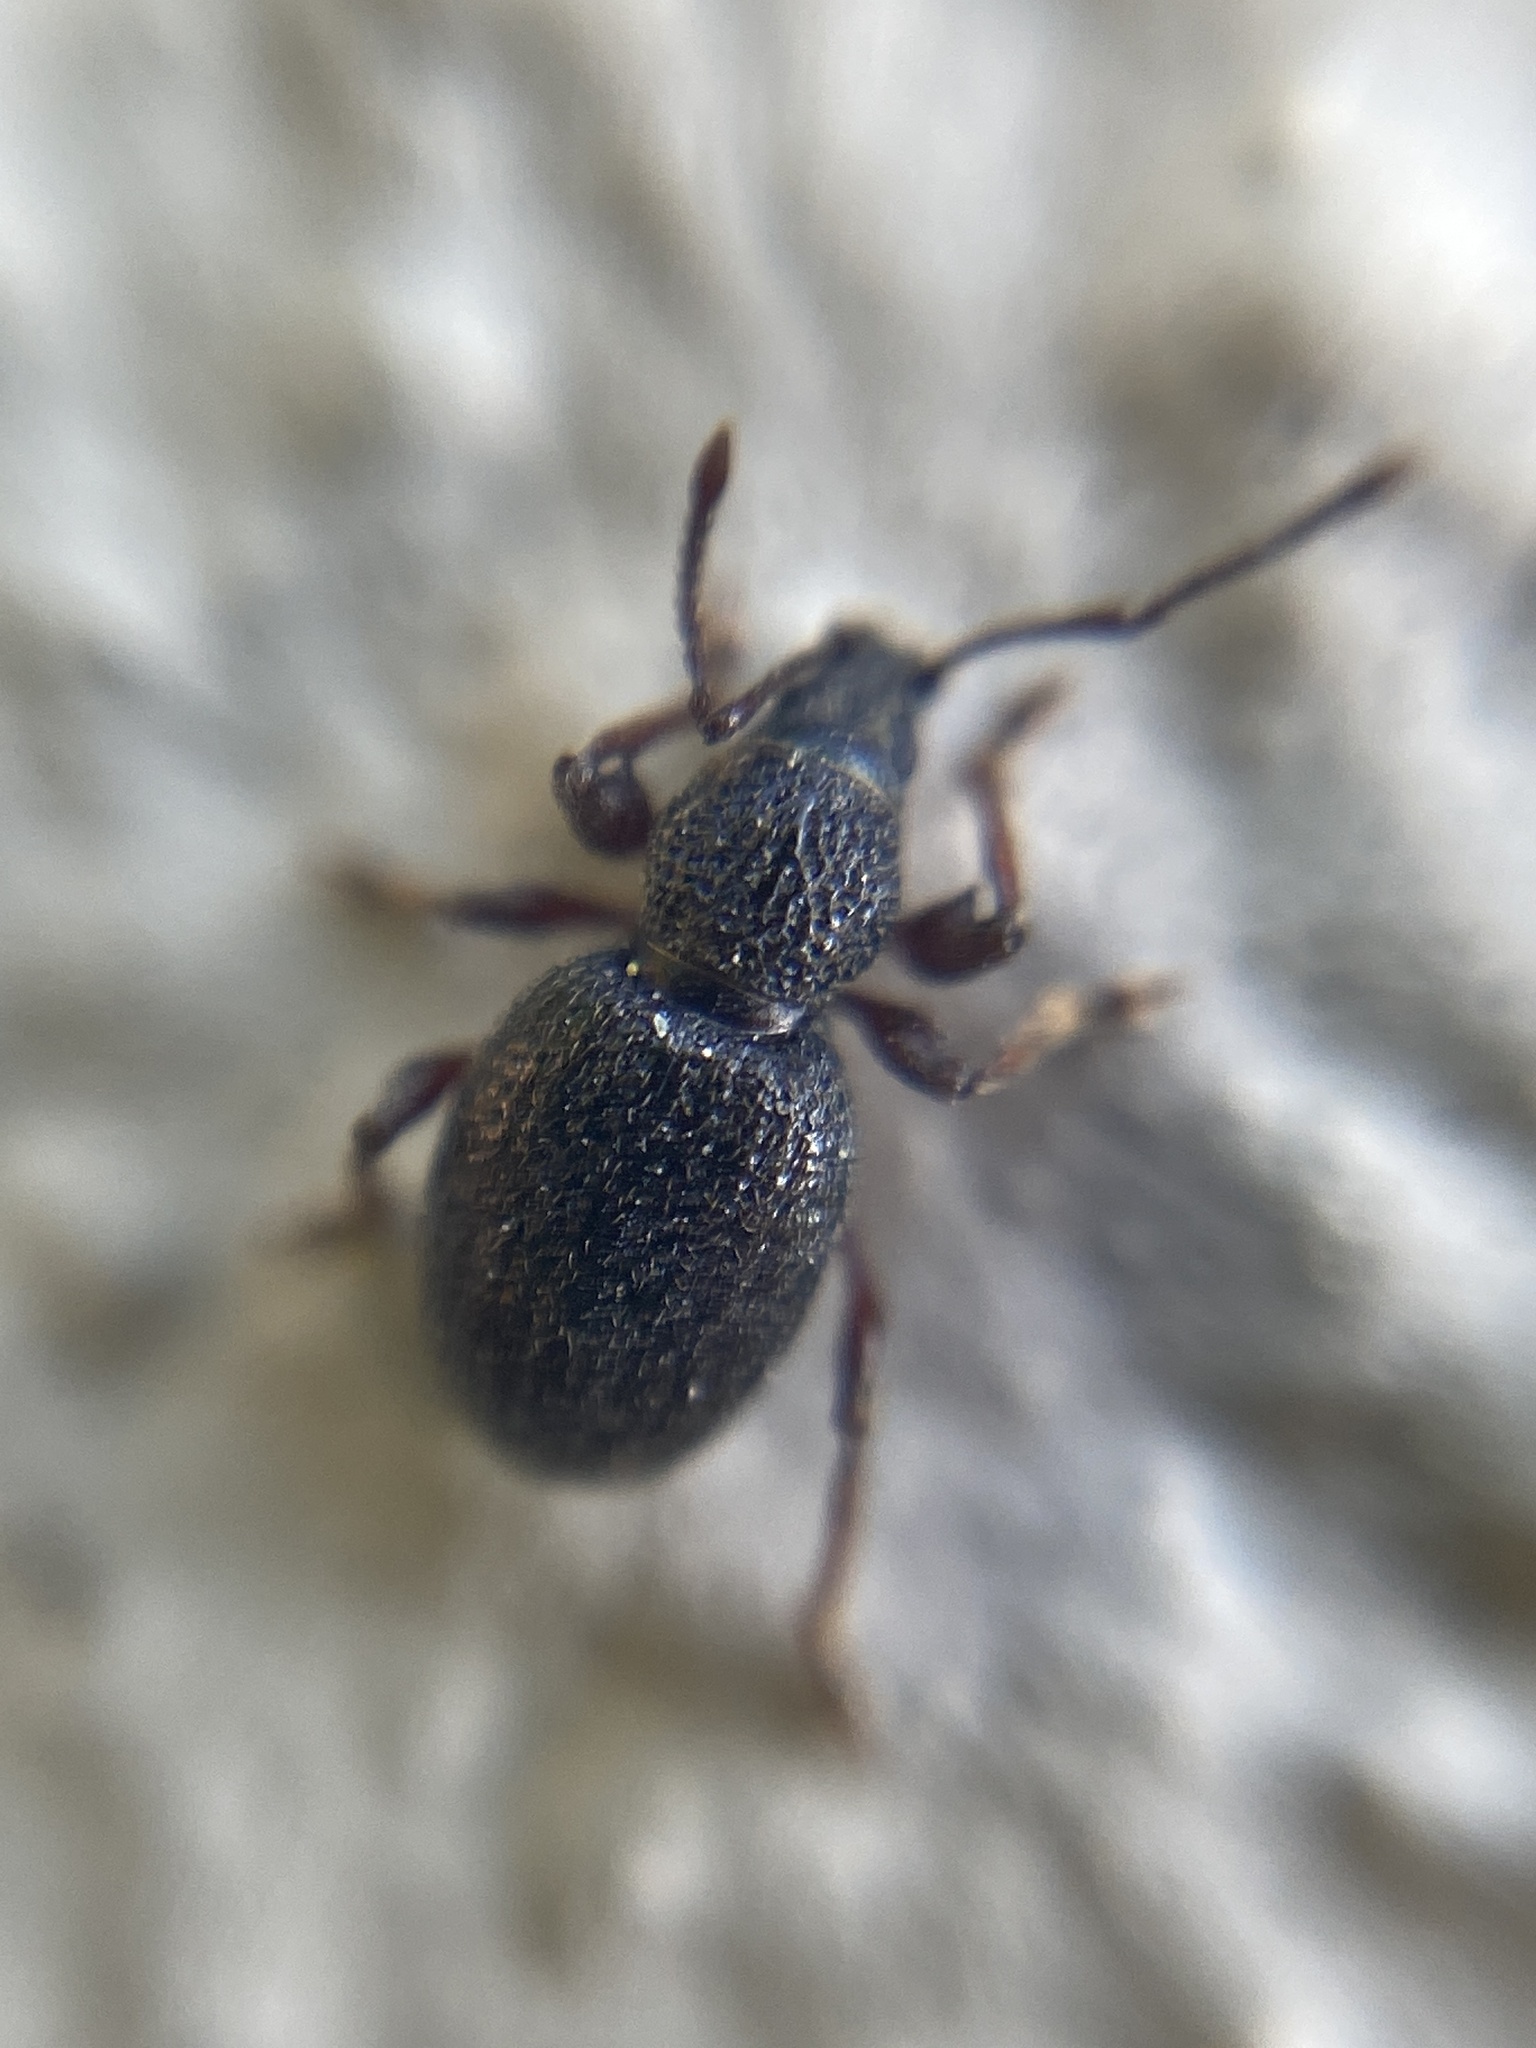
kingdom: Animalia
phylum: Arthropoda
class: Insecta
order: Coleoptera
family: Curculionidae
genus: Otiorhynchus
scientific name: Otiorhynchus ovatus
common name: Strawberry root weevil
